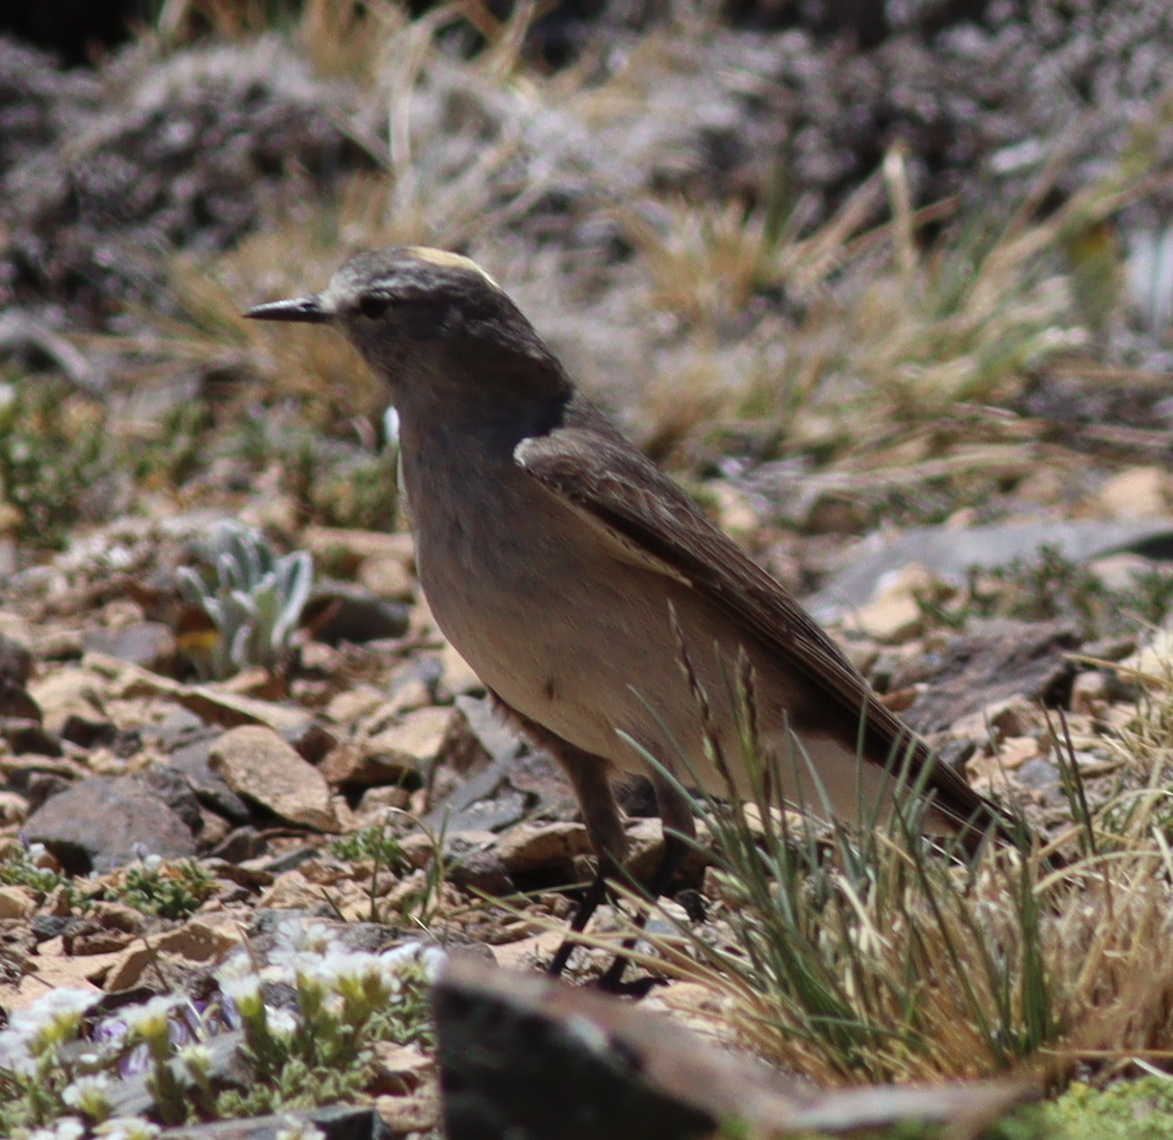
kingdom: Animalia
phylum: Chordata
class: Aves
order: Passeriformes
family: Tyrannidae
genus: Muscisaxicola
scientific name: Muscisaxicola flavinucha
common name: Ochre-naped ground tyrant
